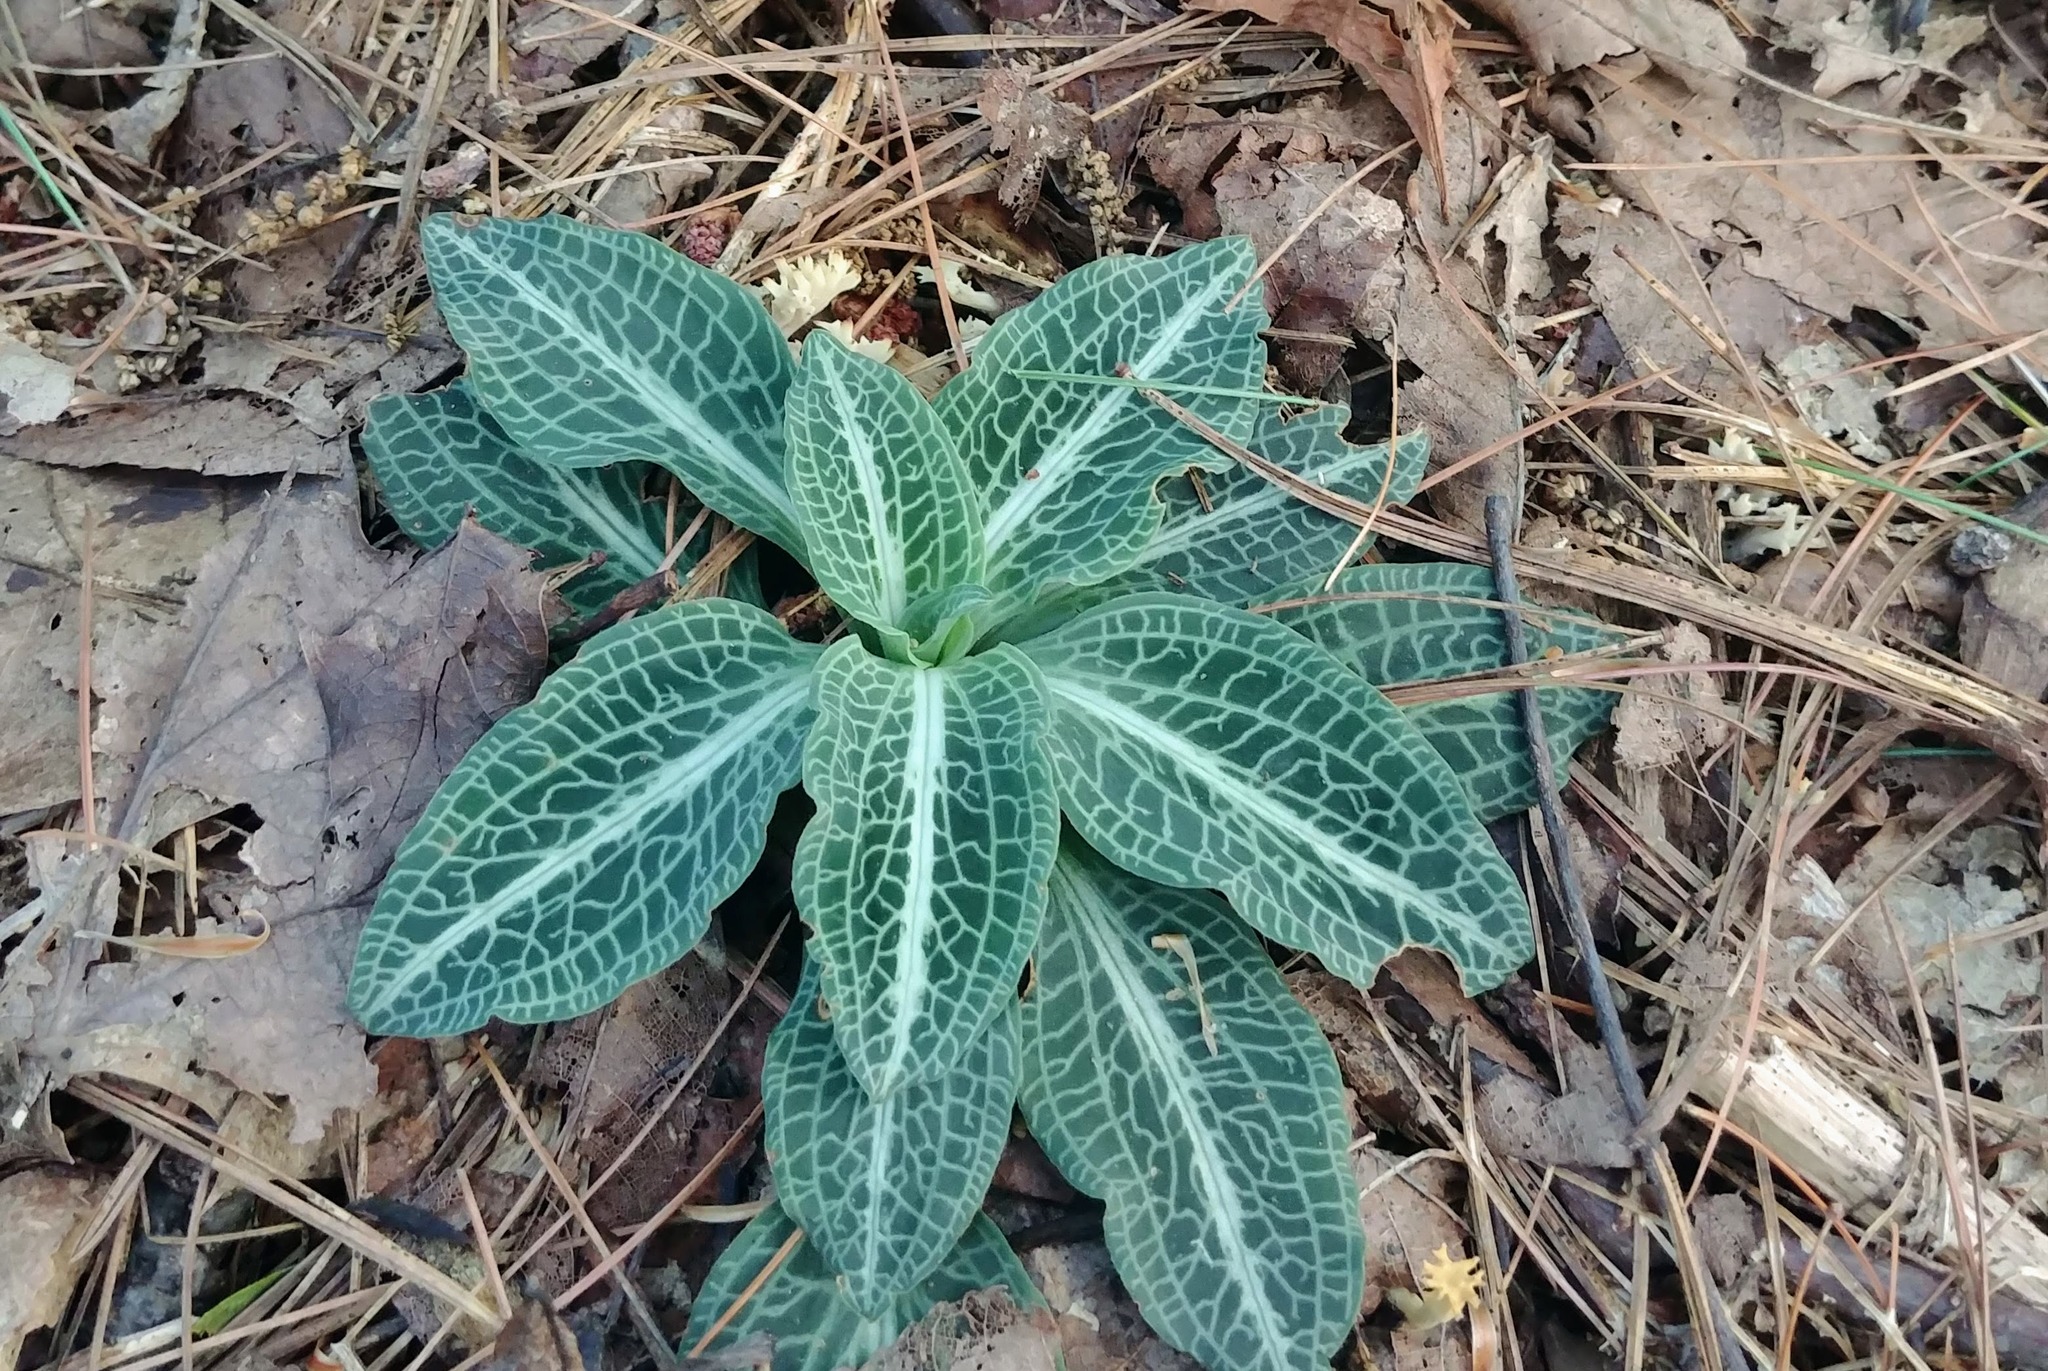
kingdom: Plantae
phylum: Tracheophyta
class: Liliopsida
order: Asparagales
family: Orchidaceae
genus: Goodyera
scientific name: Goodyera pubescens
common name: Downy rattlesnake-plantain
